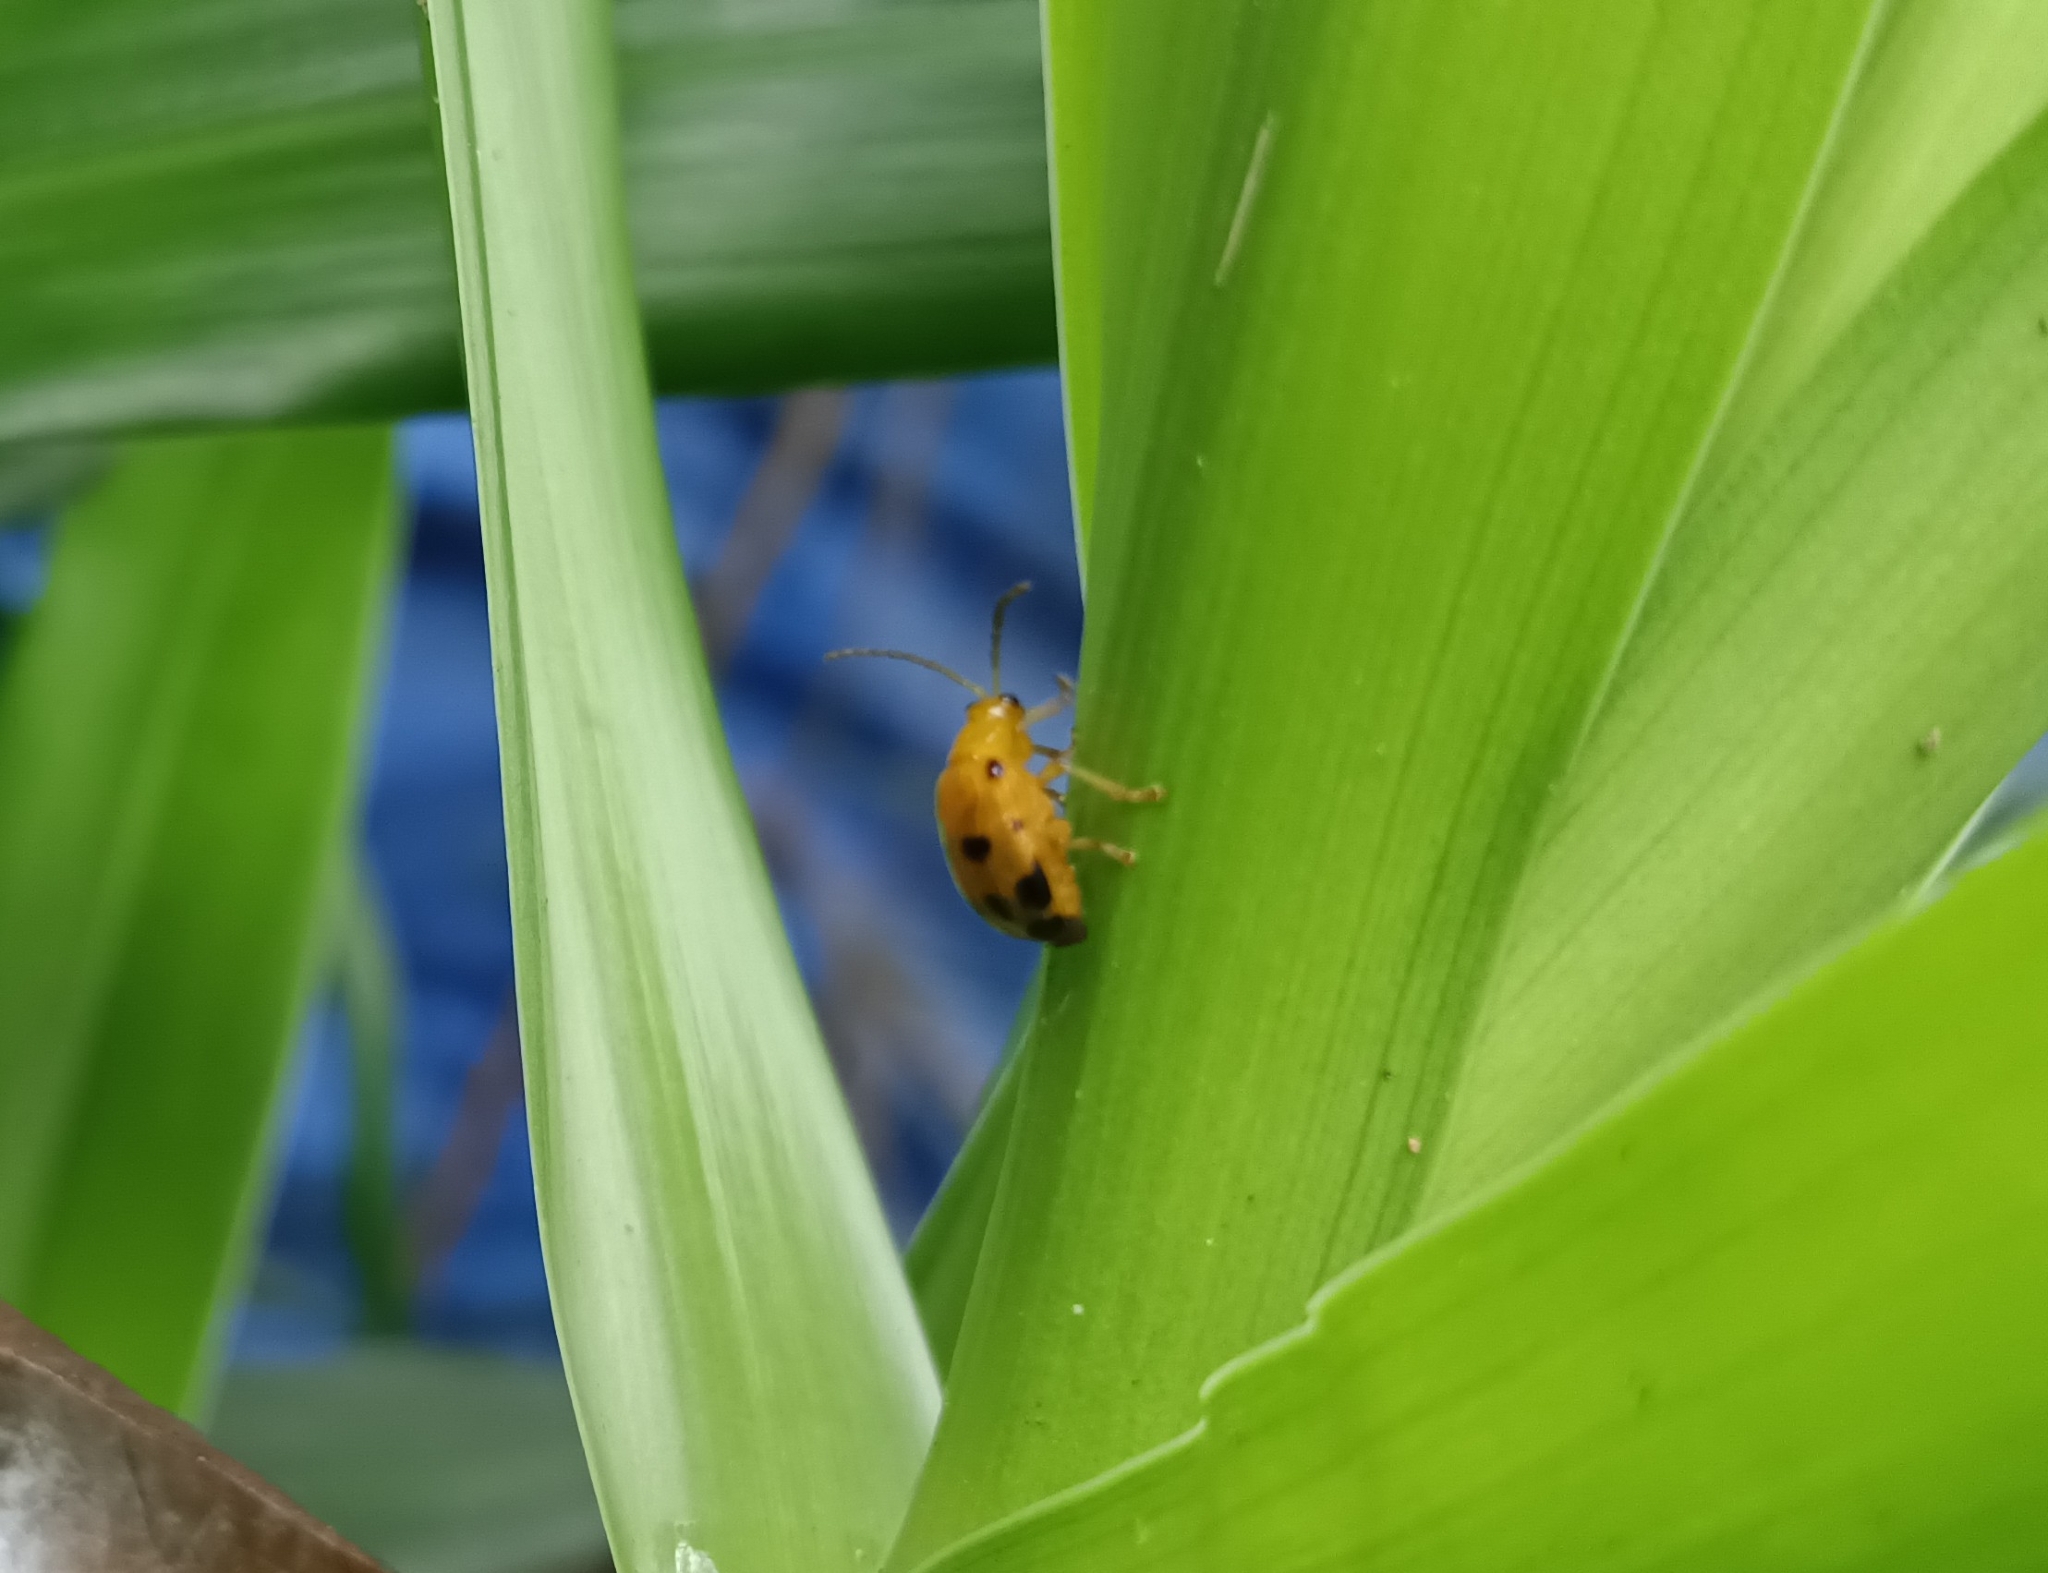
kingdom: Animalia
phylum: Arthropoda
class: Insecta
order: Coleoptera
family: Chrysomelidae
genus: Sphenoraia
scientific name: Sphenoraia
